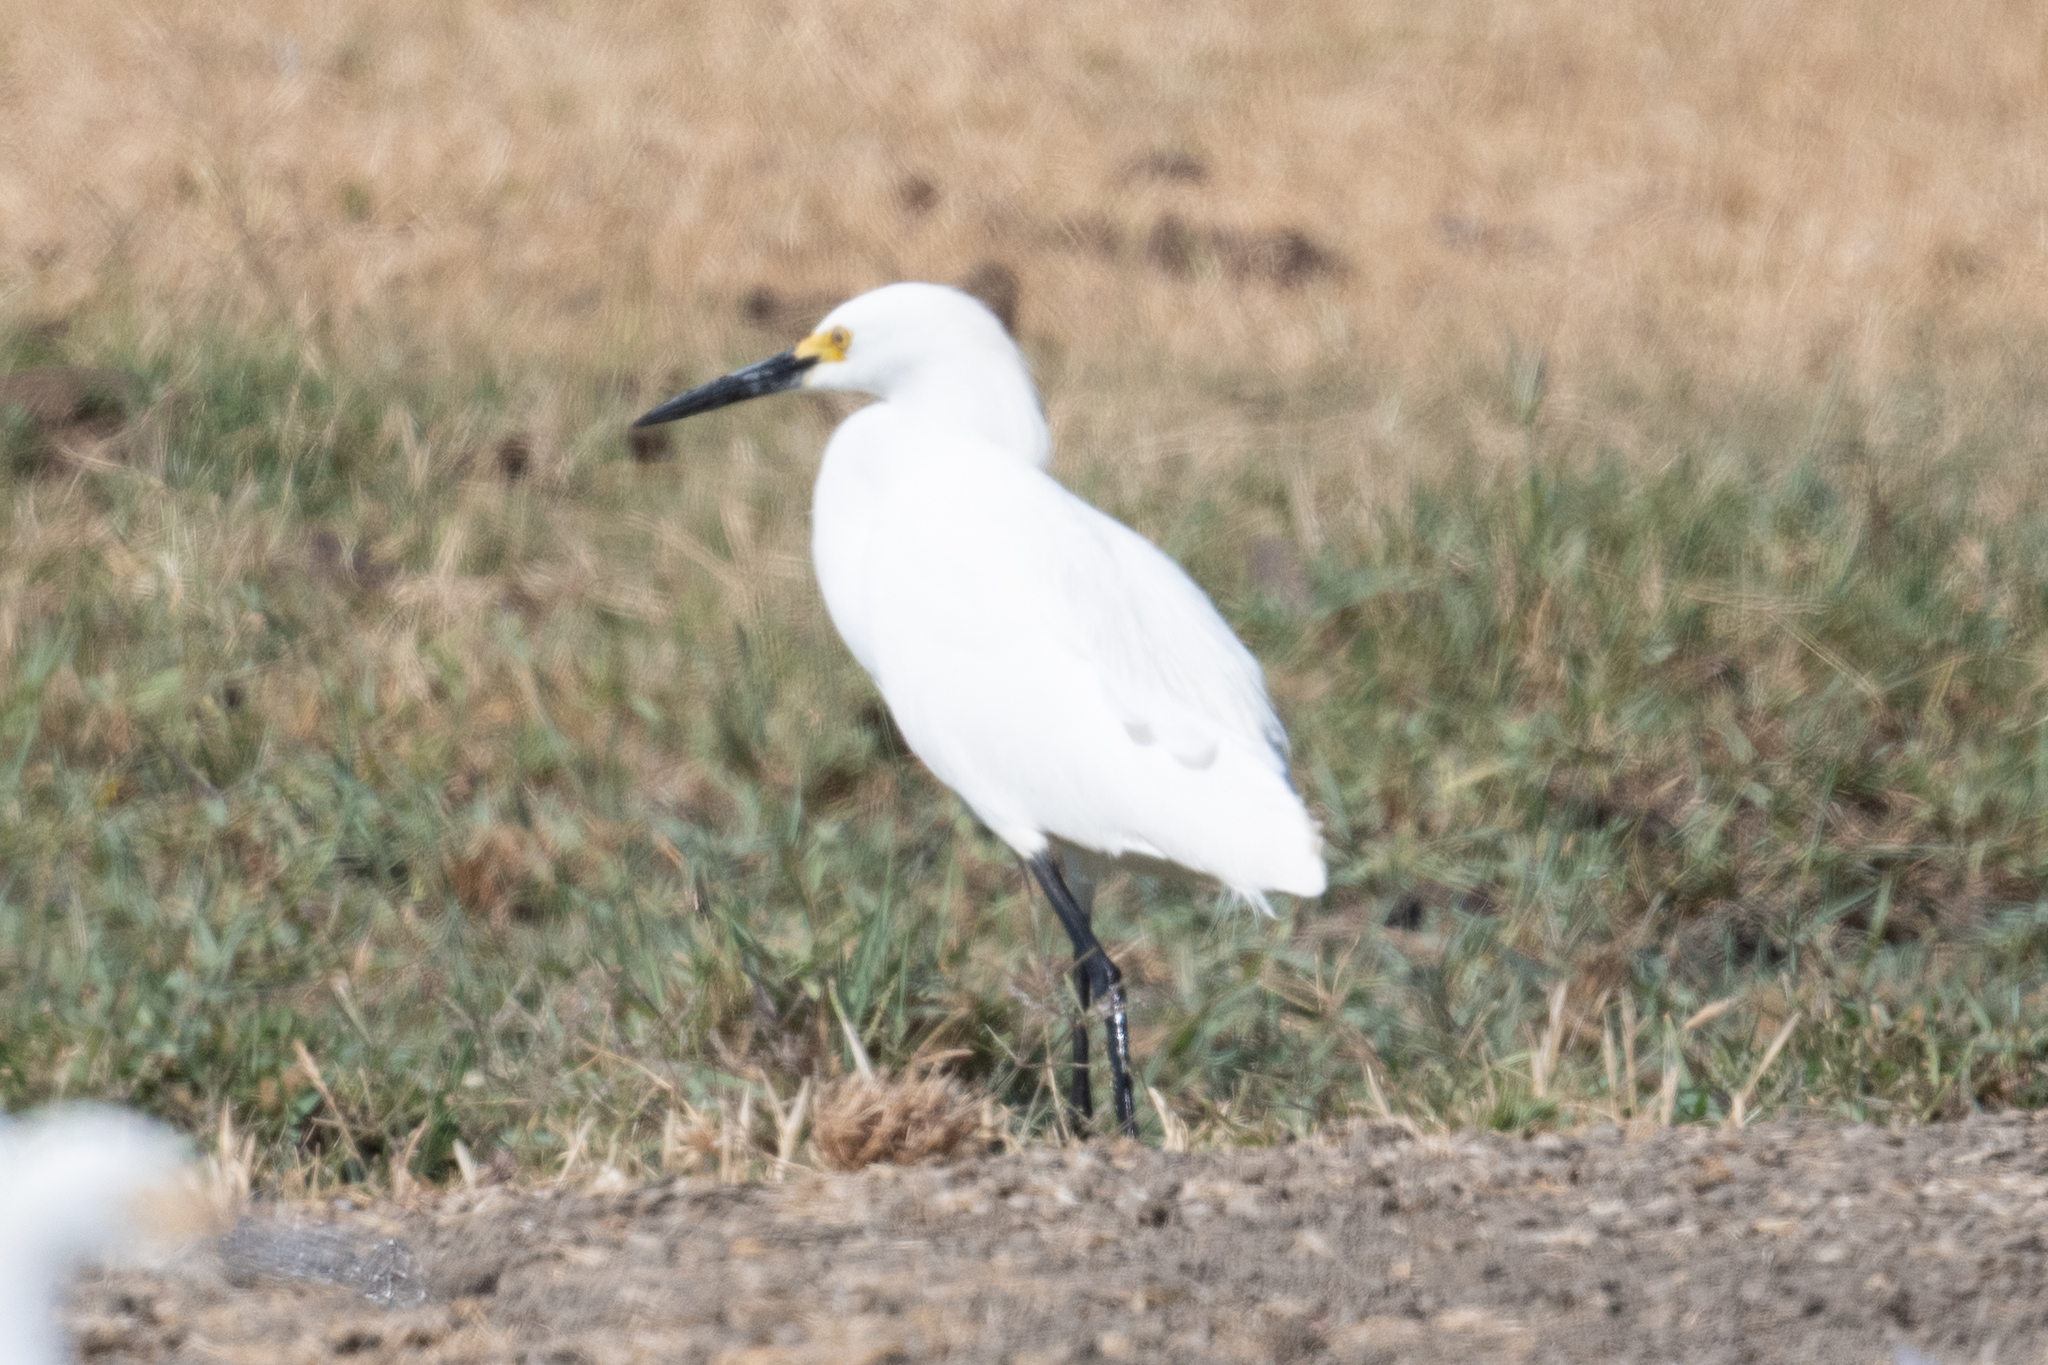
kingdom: Animalia
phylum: Chordata
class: Aves
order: Pelecaniformes
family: Ardeidae
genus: Egretta
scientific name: Egretta thula
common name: Snowy egret
